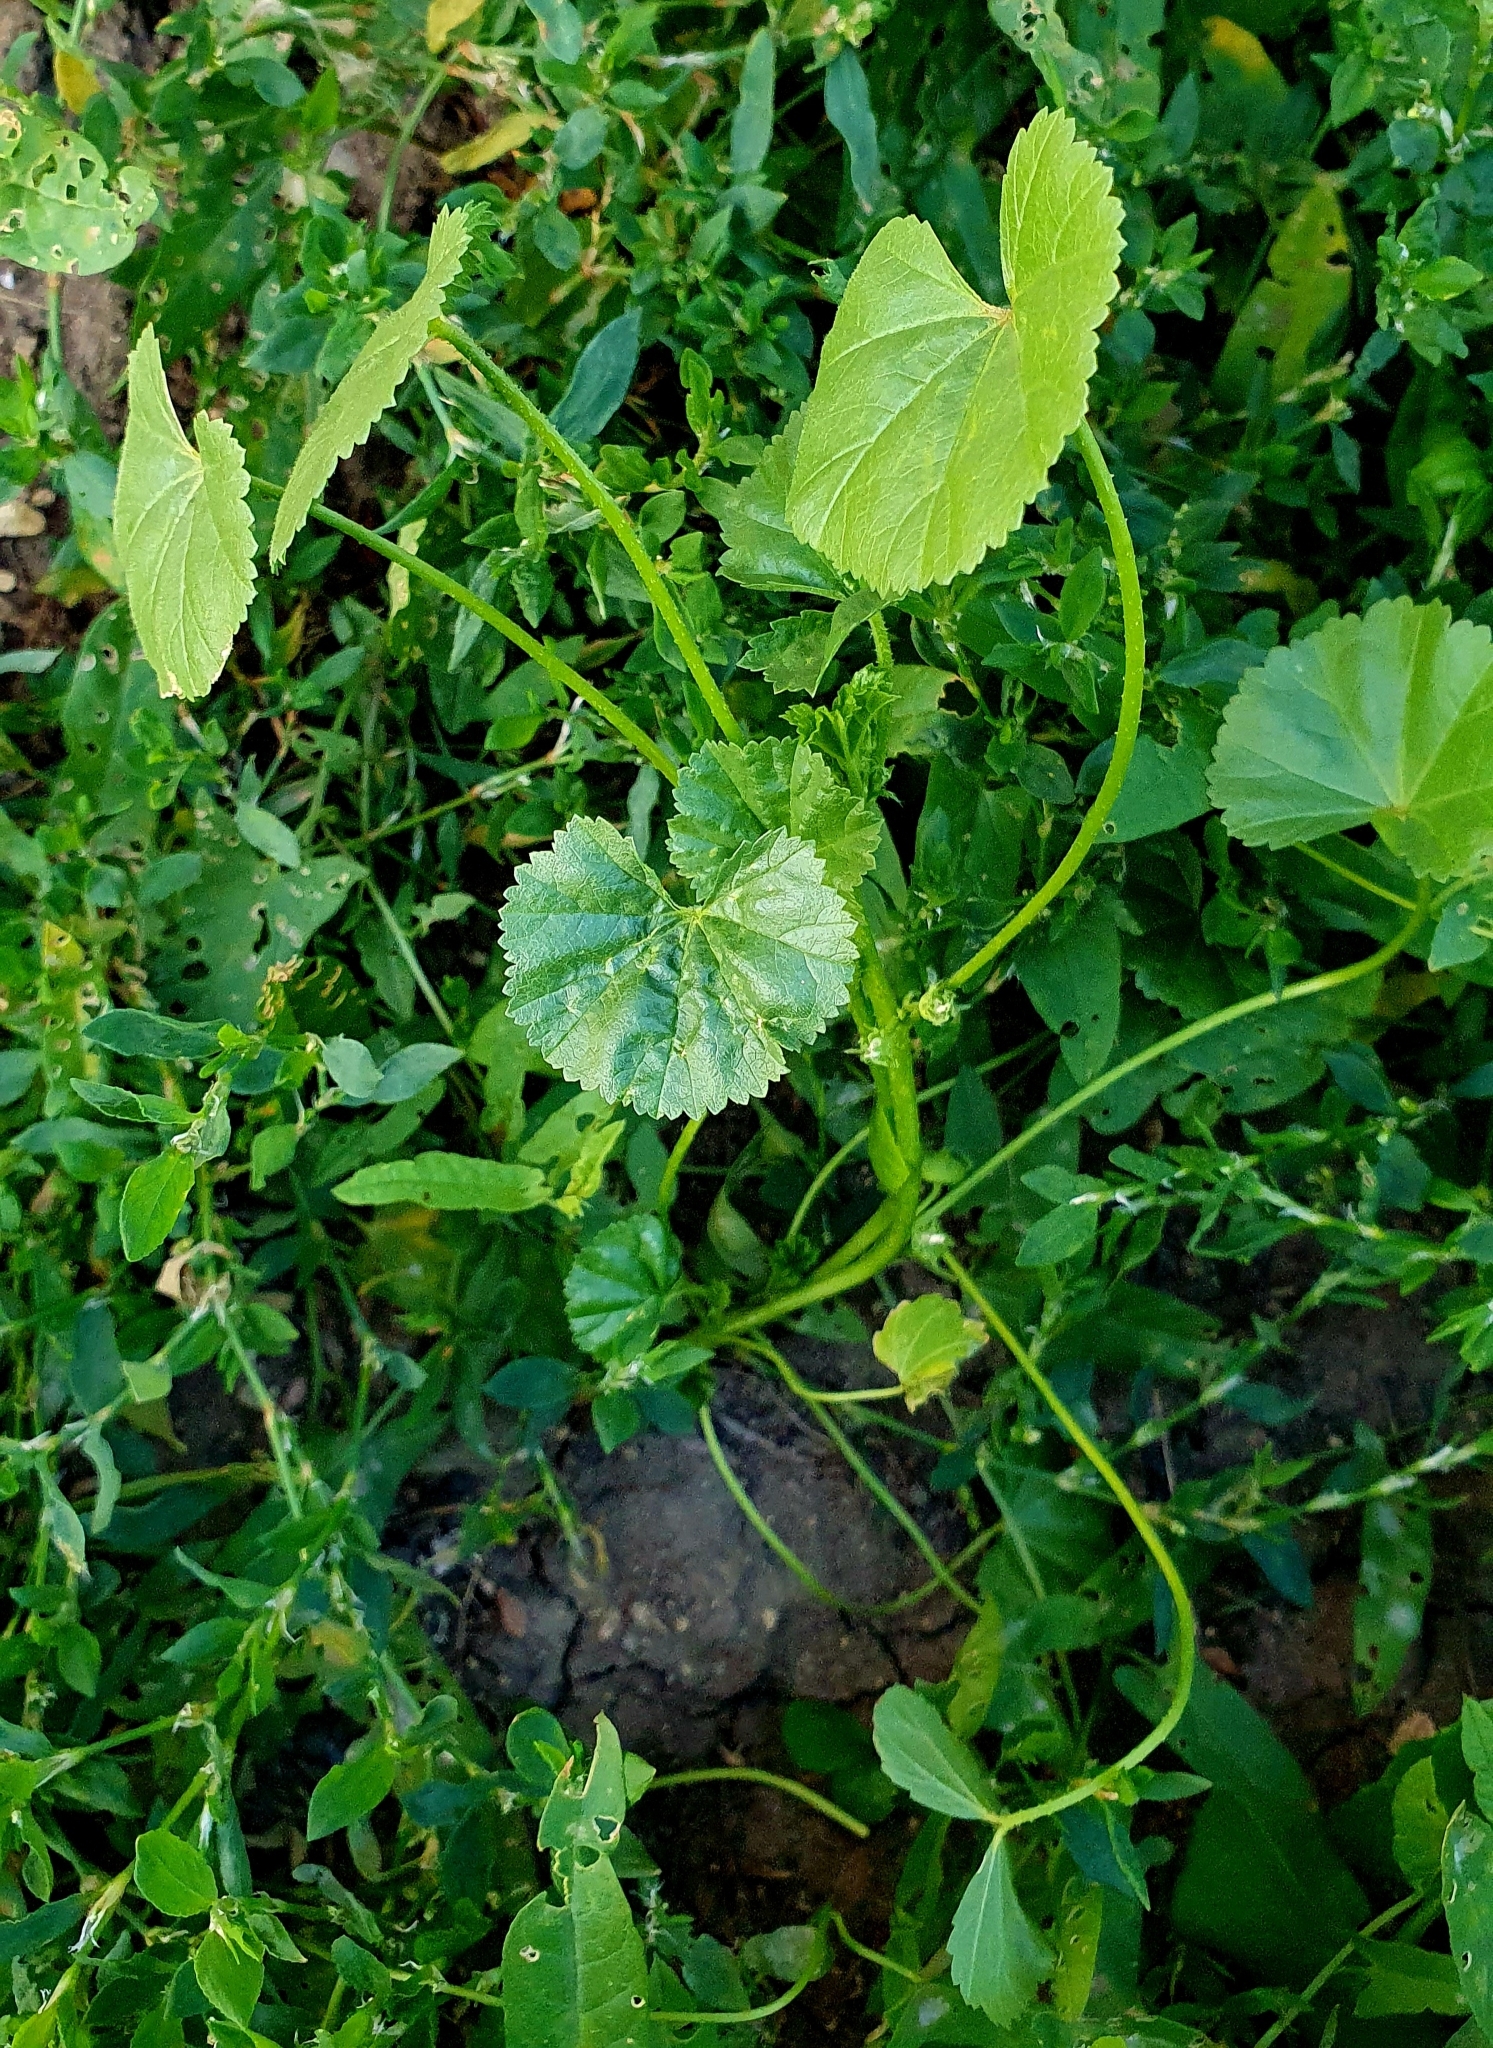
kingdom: Plantae
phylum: Tracheophyta
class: Magnoliopsida
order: Malvales
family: Malvaceae
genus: Malva
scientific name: Malva pusilla
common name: Small mallow
